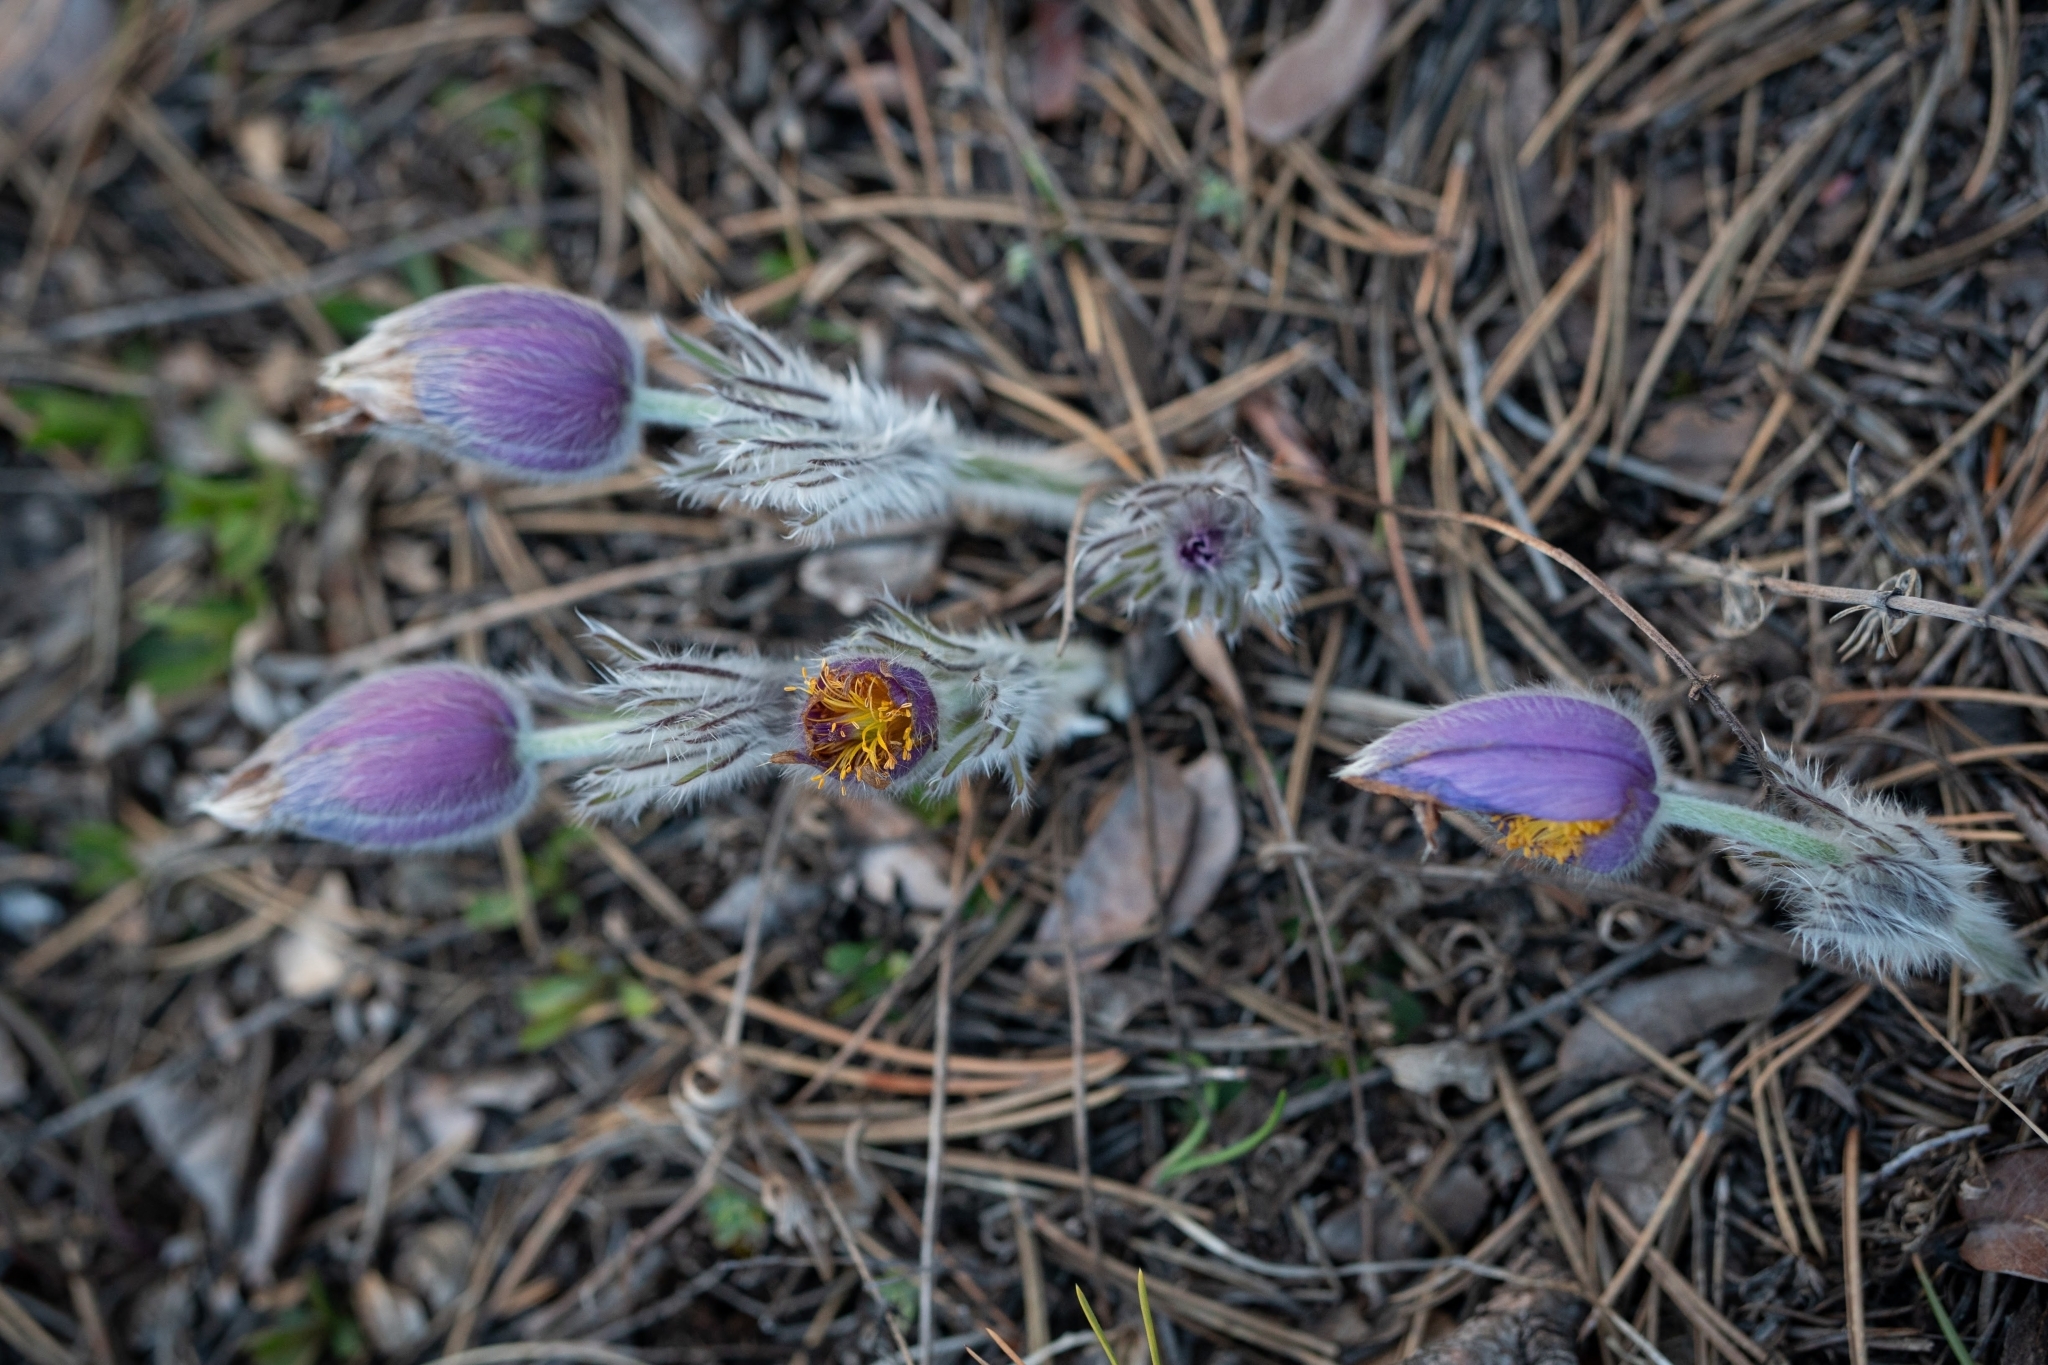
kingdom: Plantae
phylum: Tracheophyta
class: Magnoliopsida
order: Ranunculales
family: Ranunculaceae
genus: Pulsatilla
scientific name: Pulsatilla grandis
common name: Greater pasque flower
